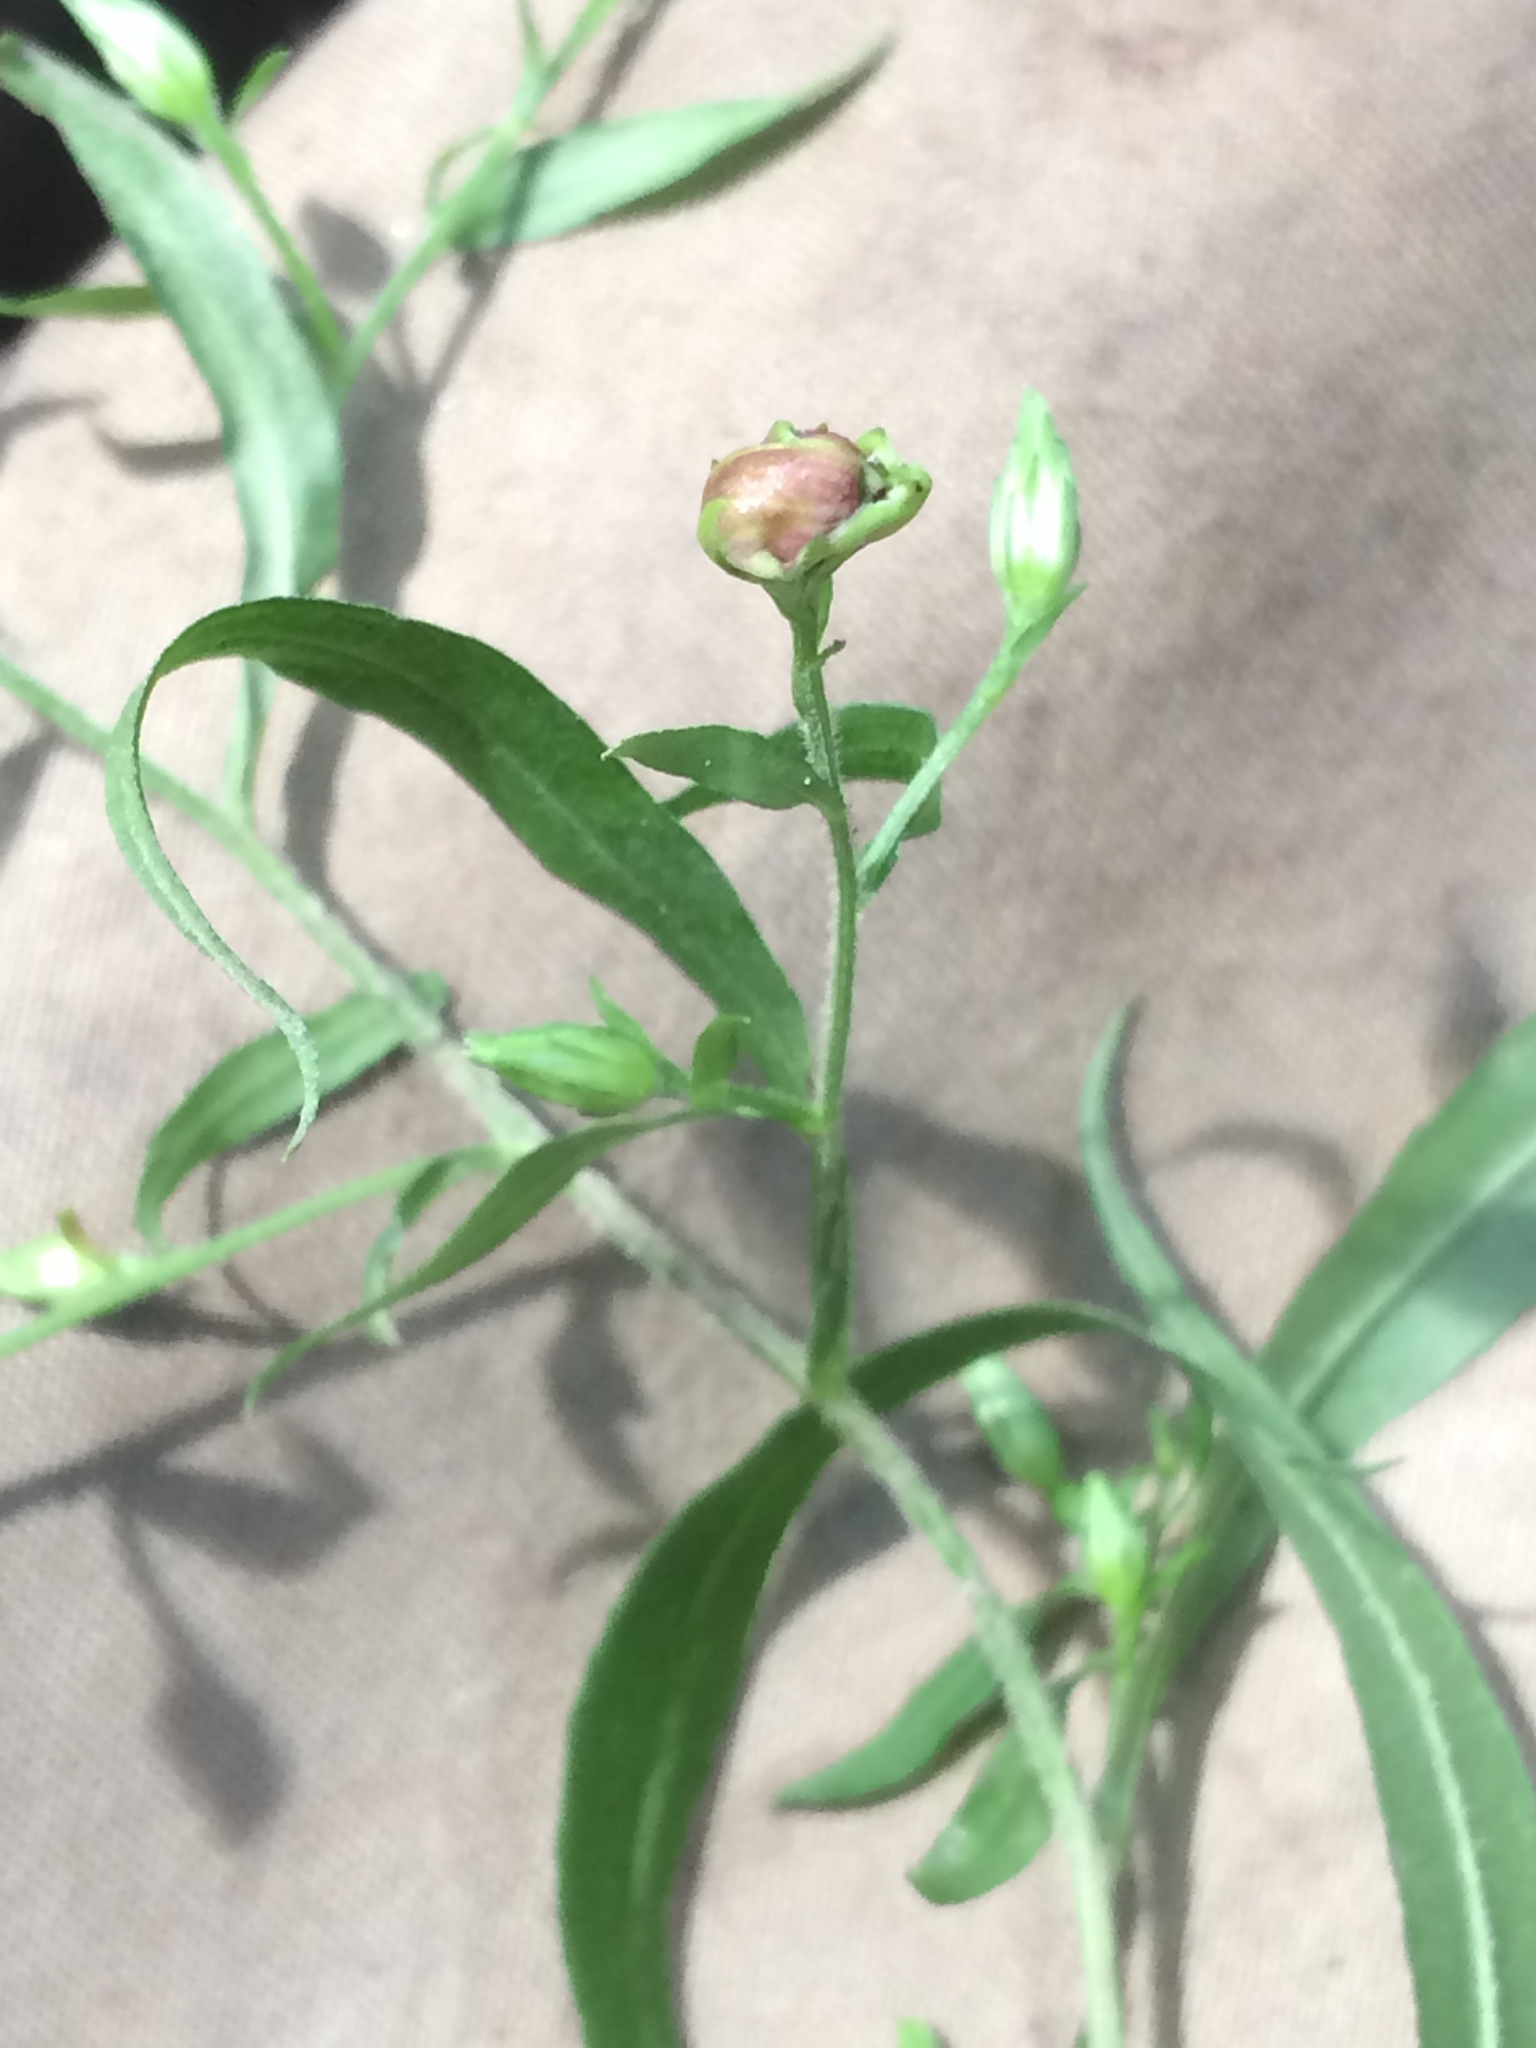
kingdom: Plantae
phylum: Tracheophyta
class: Magnoliopsida
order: Asterales
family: Asteraceae
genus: Symphyotrichum
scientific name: Symphyotrichum lateriflorum
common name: Calico aster
